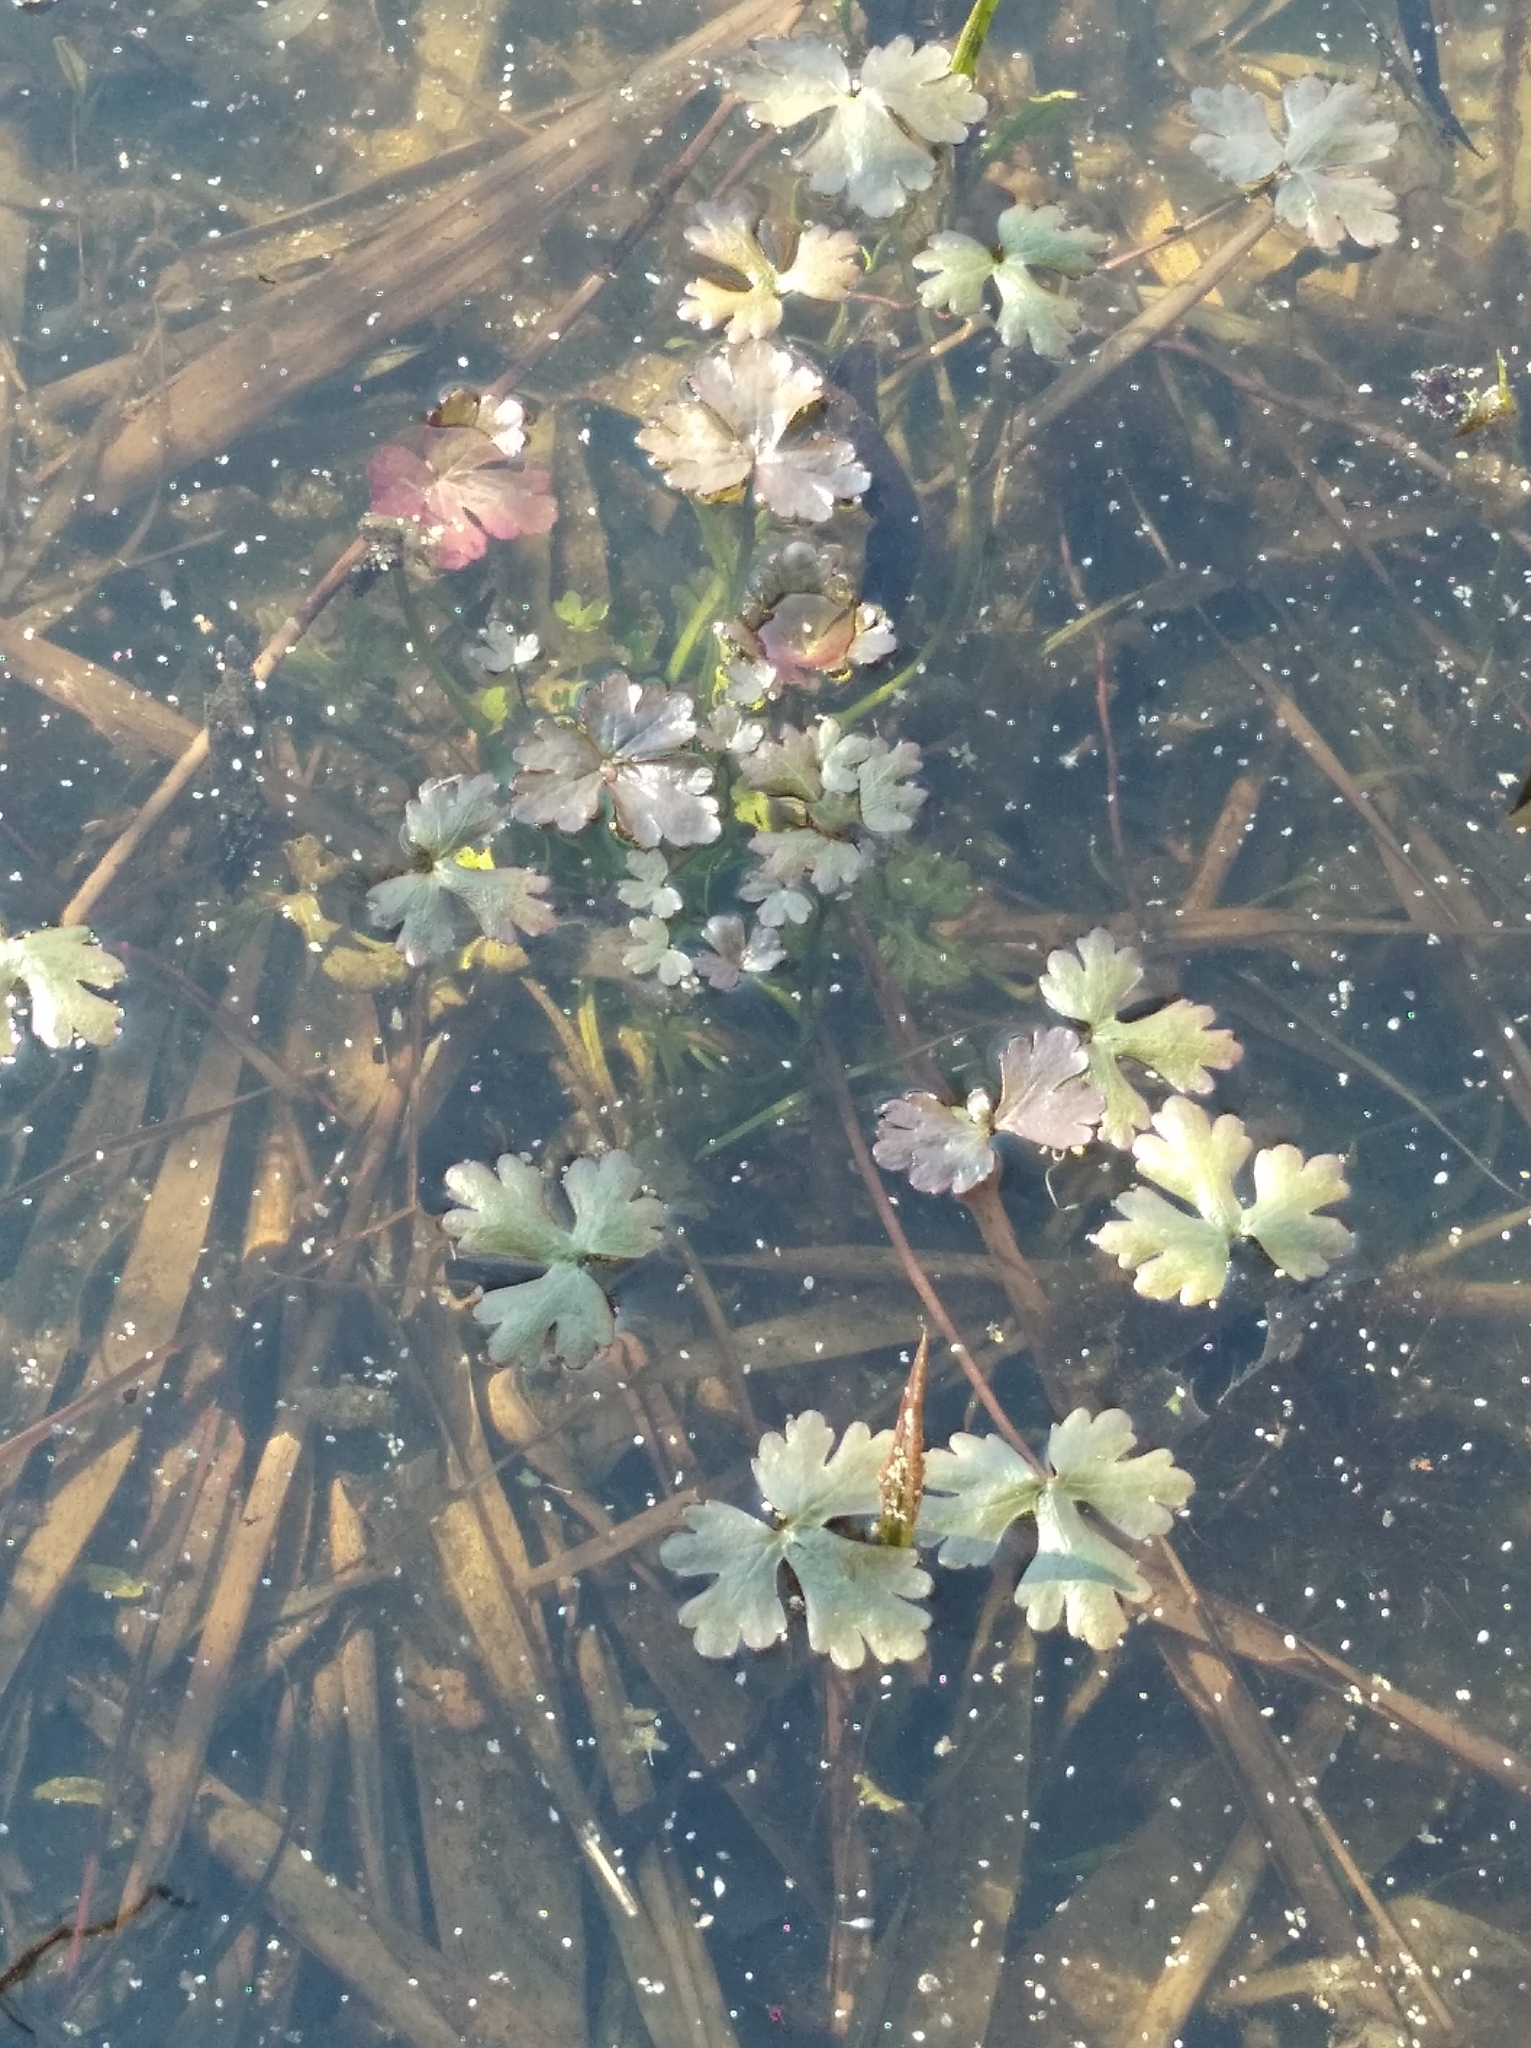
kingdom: Plantae
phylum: Tracheophyta
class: Magnoliopsida
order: Ranunculales
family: Ranunculaceae
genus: Ranunculus
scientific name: Ranunculus sceleratus
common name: Celery-leaved buttercup
